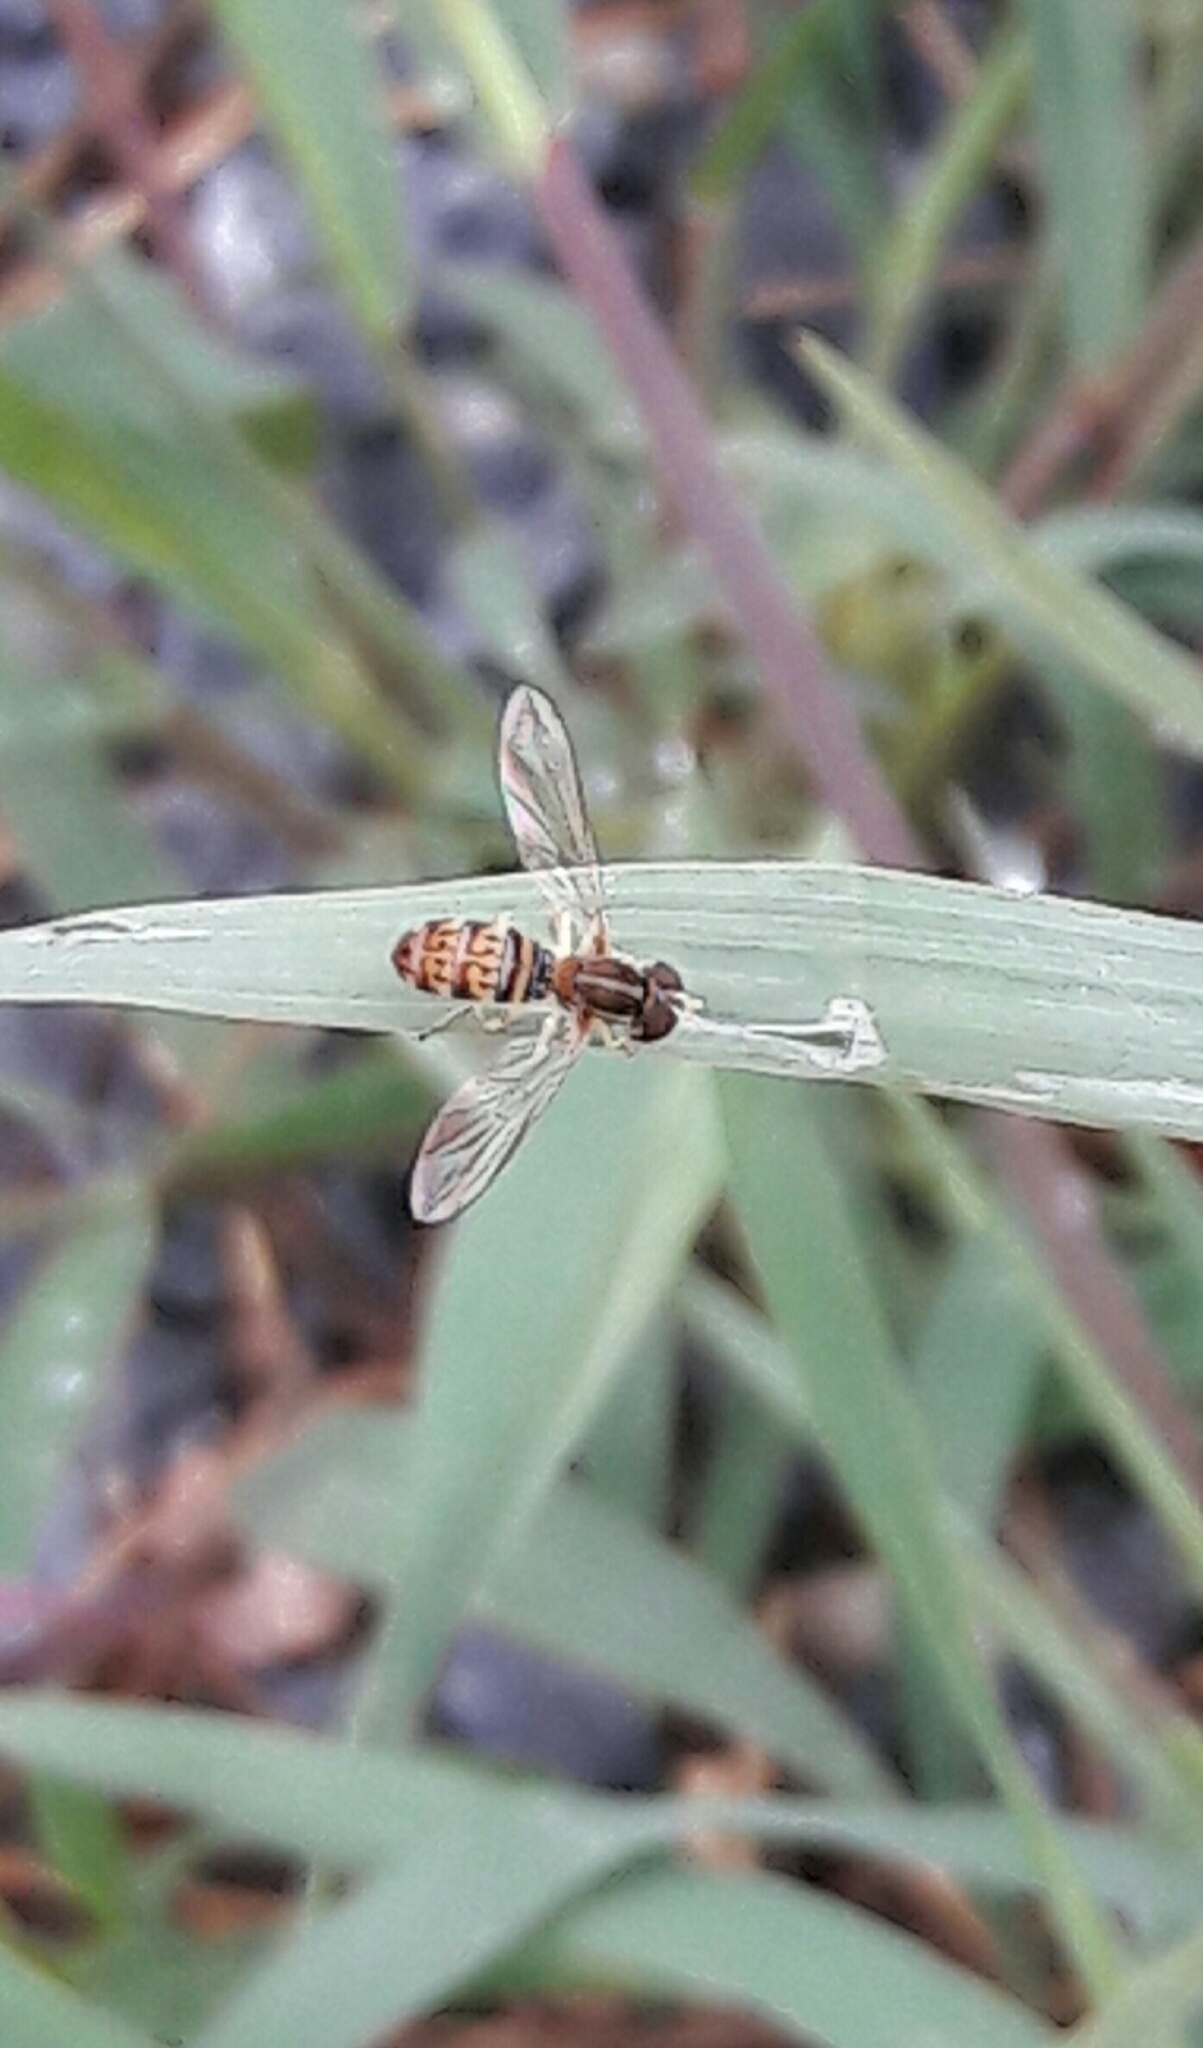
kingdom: Animalia
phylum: Arthropoda
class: Insecta
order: Diptera
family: Syrphidae
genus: Toxomerus
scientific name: Toxomerus
